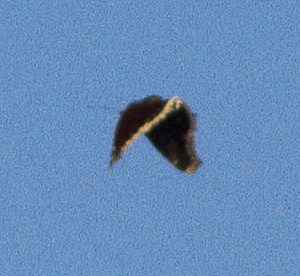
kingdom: Animalia
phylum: Arthropoda
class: Insecta
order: Lepidoptera
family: Nymphalidae
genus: Nymphalis
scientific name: Nymphalis antiopa
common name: Camberwell beauty
